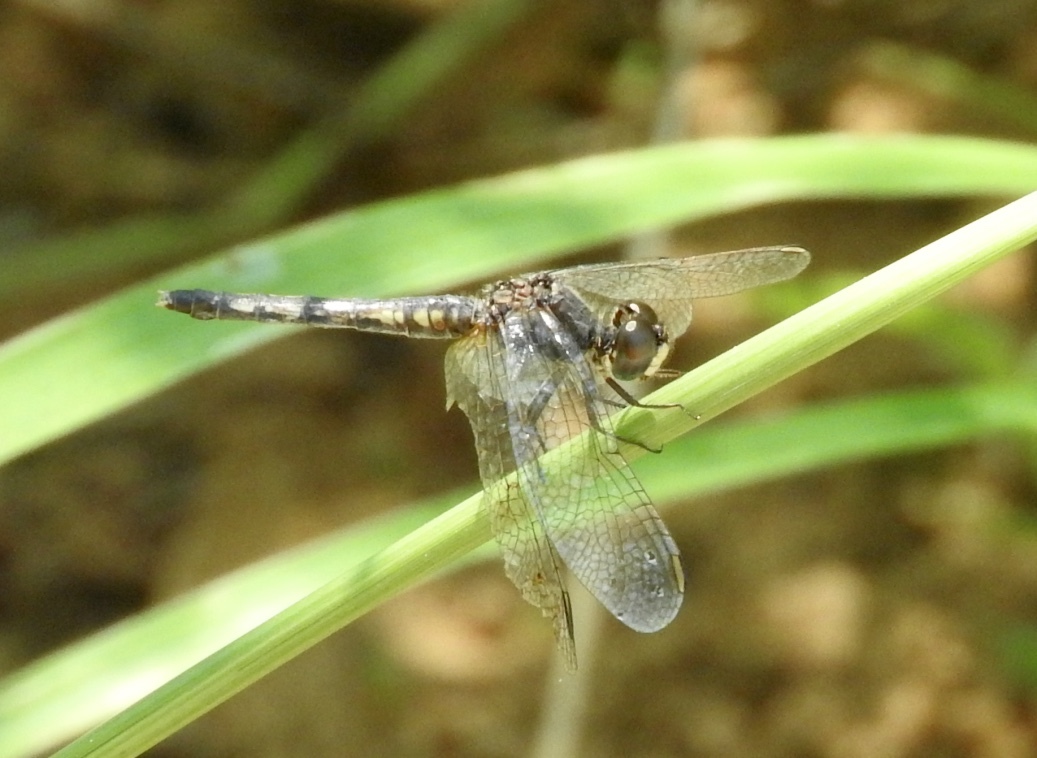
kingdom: Animalia
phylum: Arthropoda
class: Insecta
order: Odonata
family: Libellulidae
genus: Diplacodes
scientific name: Diplacodes lefebvrii
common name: Black percher
